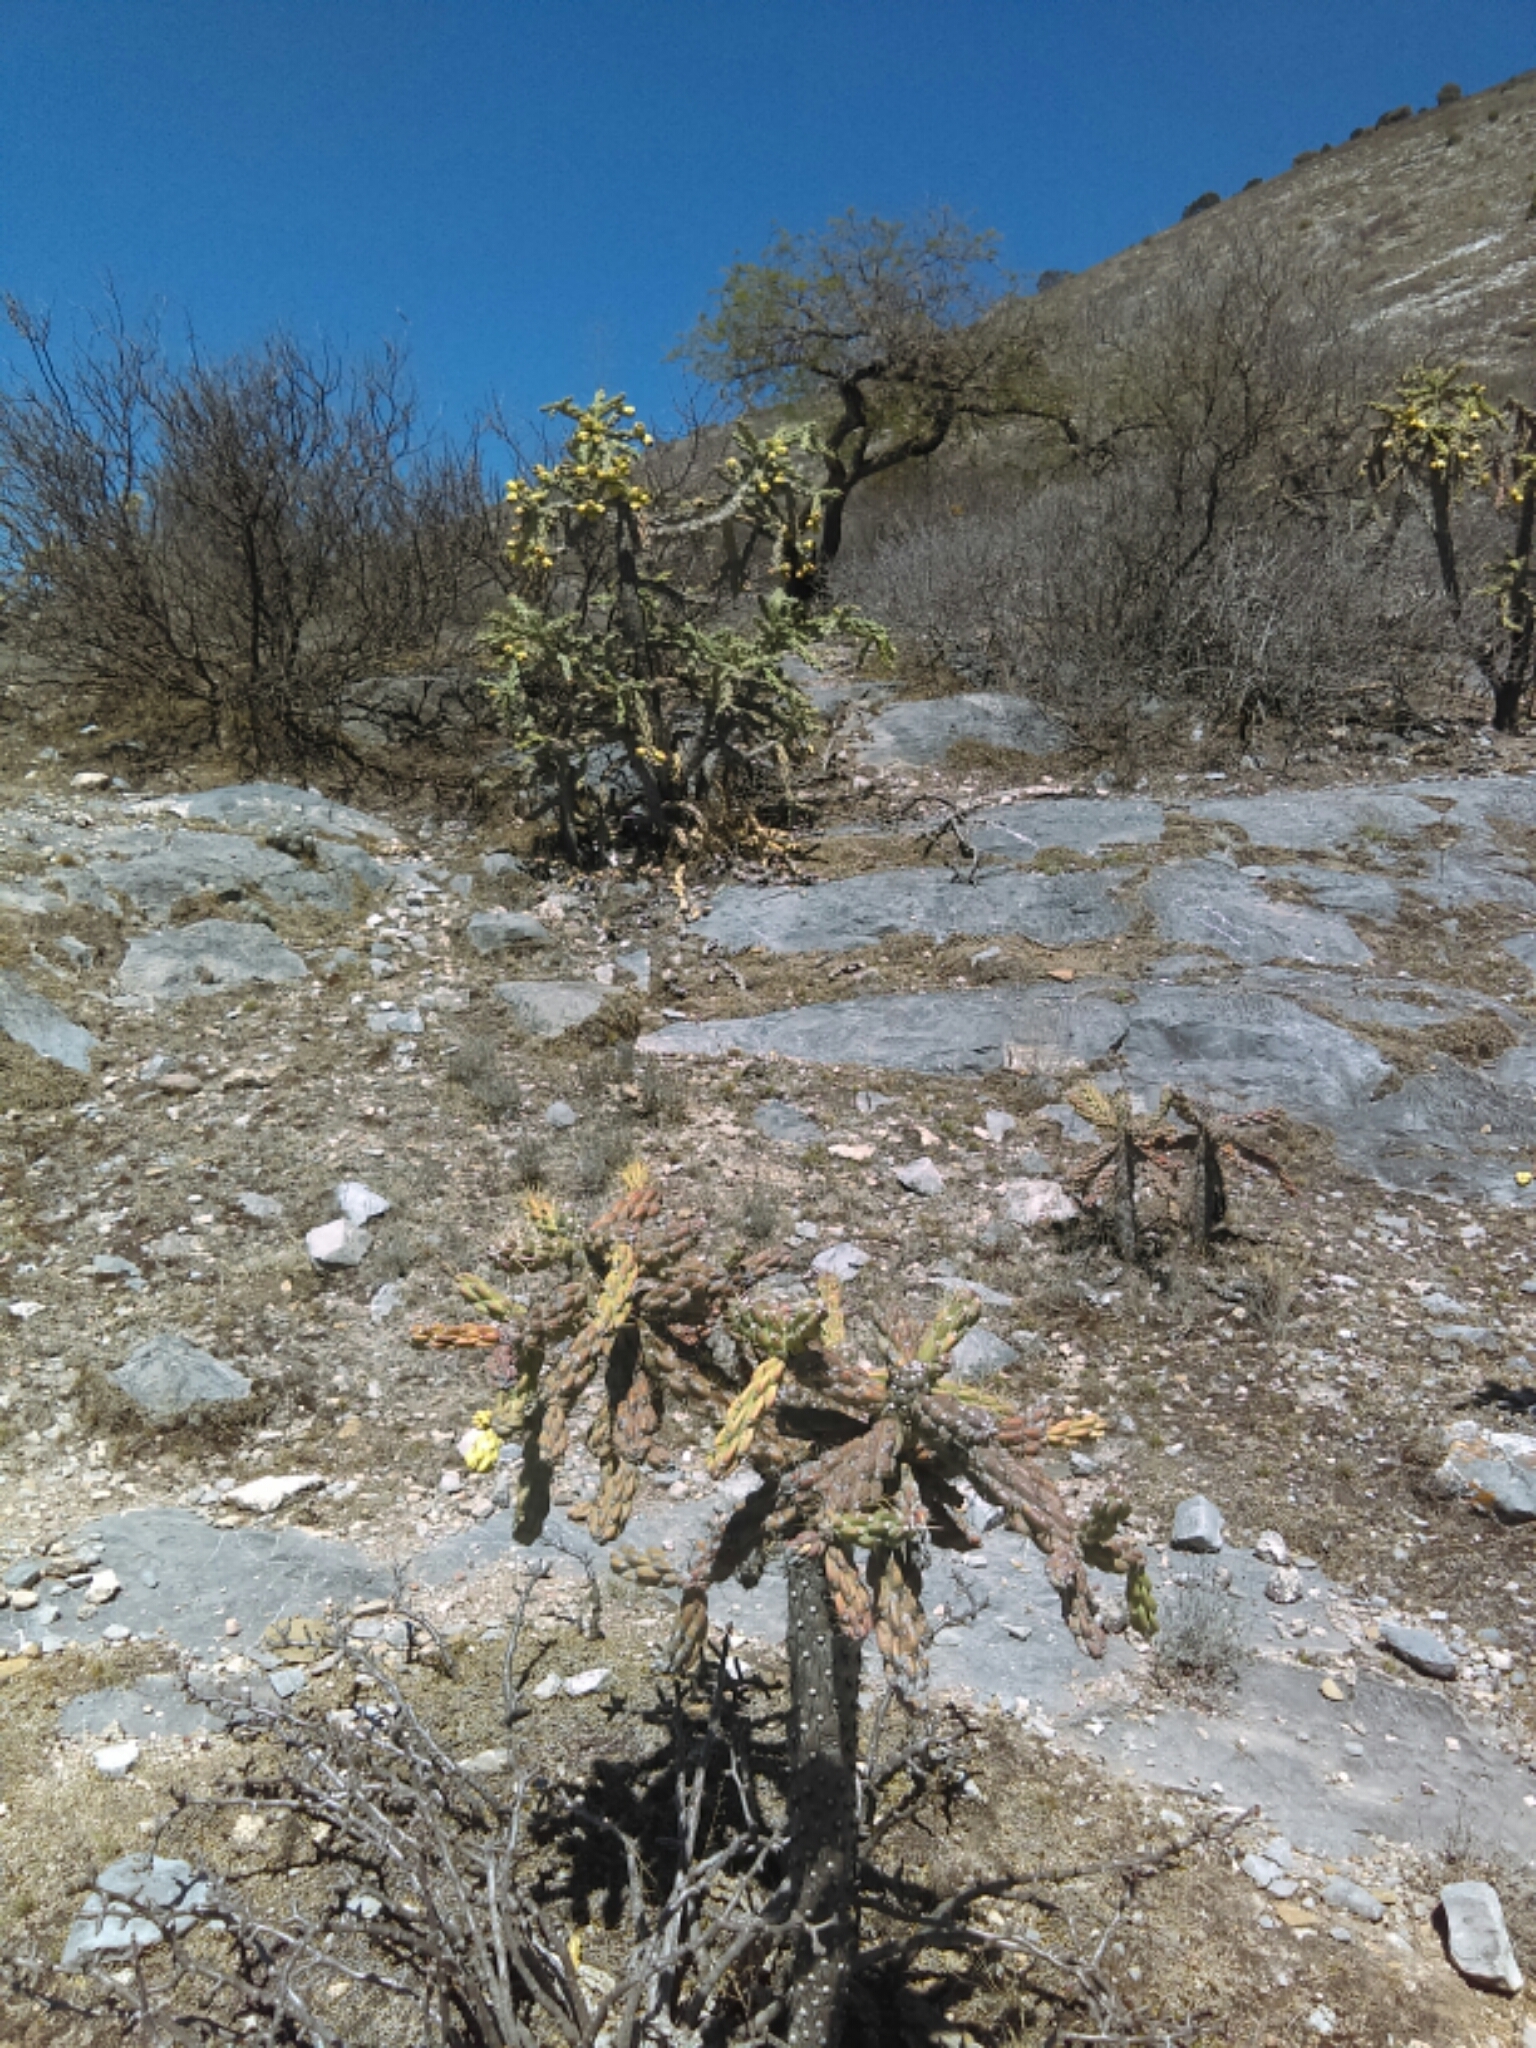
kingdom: Plantae
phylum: Tracheophyta
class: Magnoliopsida
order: Caryophyllales
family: Cactaceae
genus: Cylindropuntia
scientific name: Cylindropuntia imbricata
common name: Candelabrum cactus
